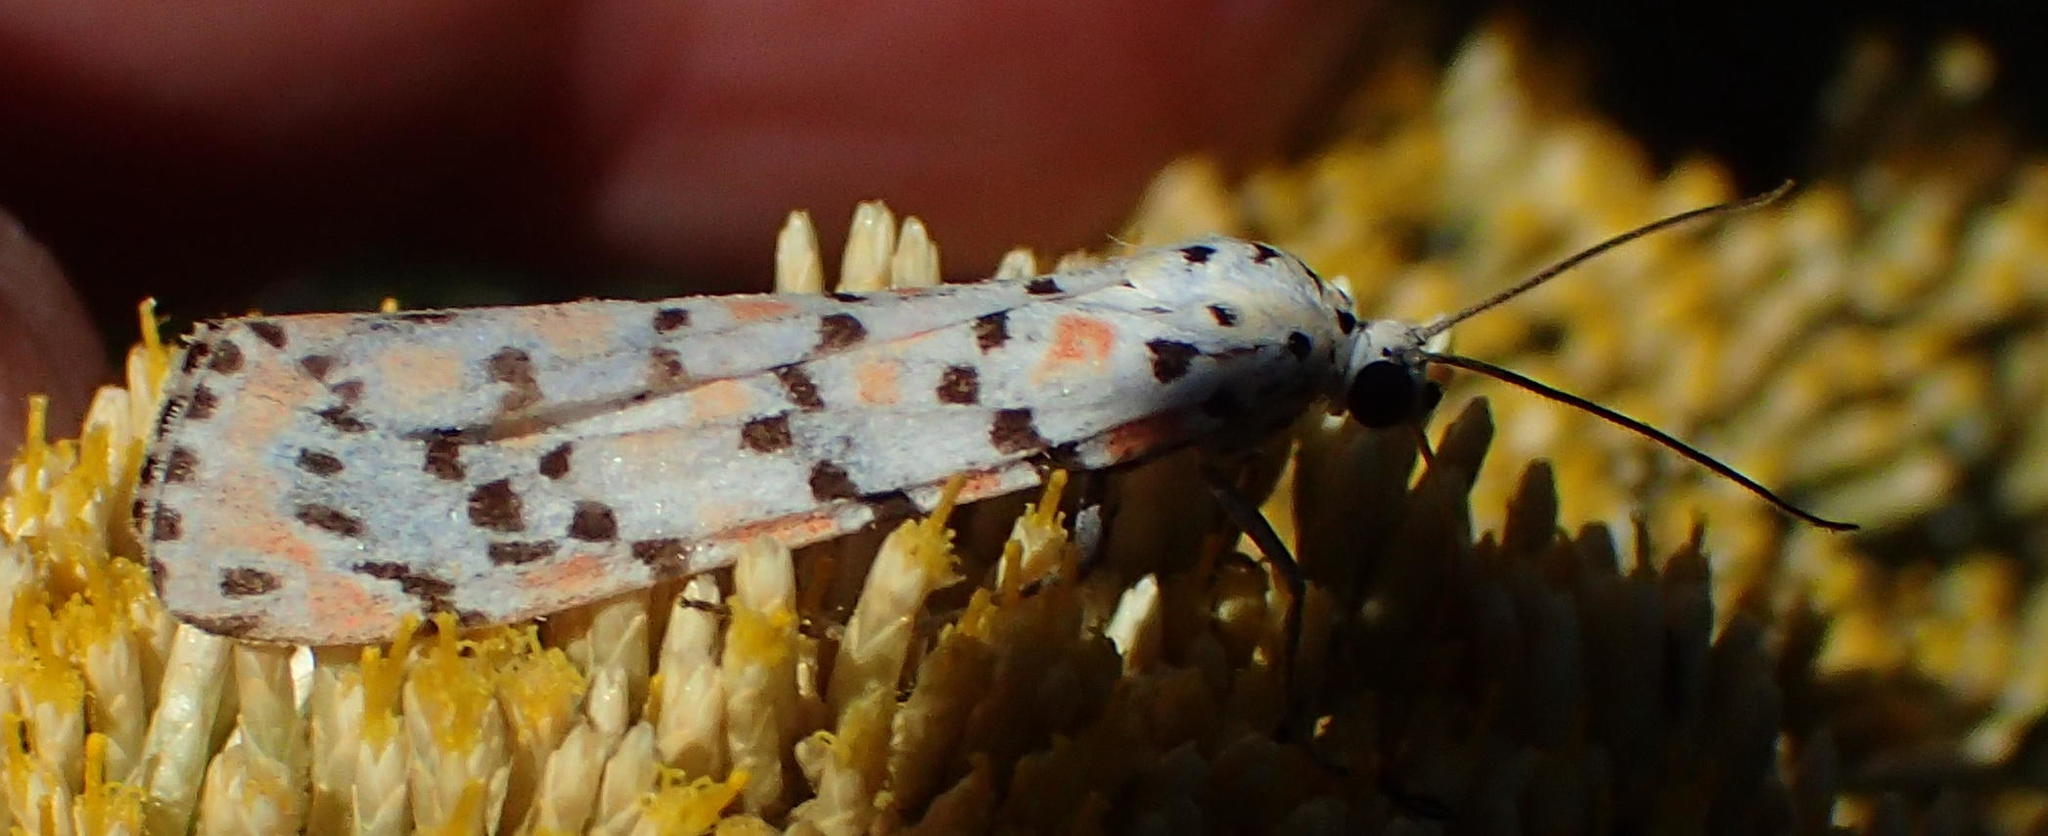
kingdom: Animalia
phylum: Arthropoda
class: Insecta
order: Lepidoptera
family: Erebidae
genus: Utetheisa
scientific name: Utetheisa pulchella
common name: Crimson speckled
